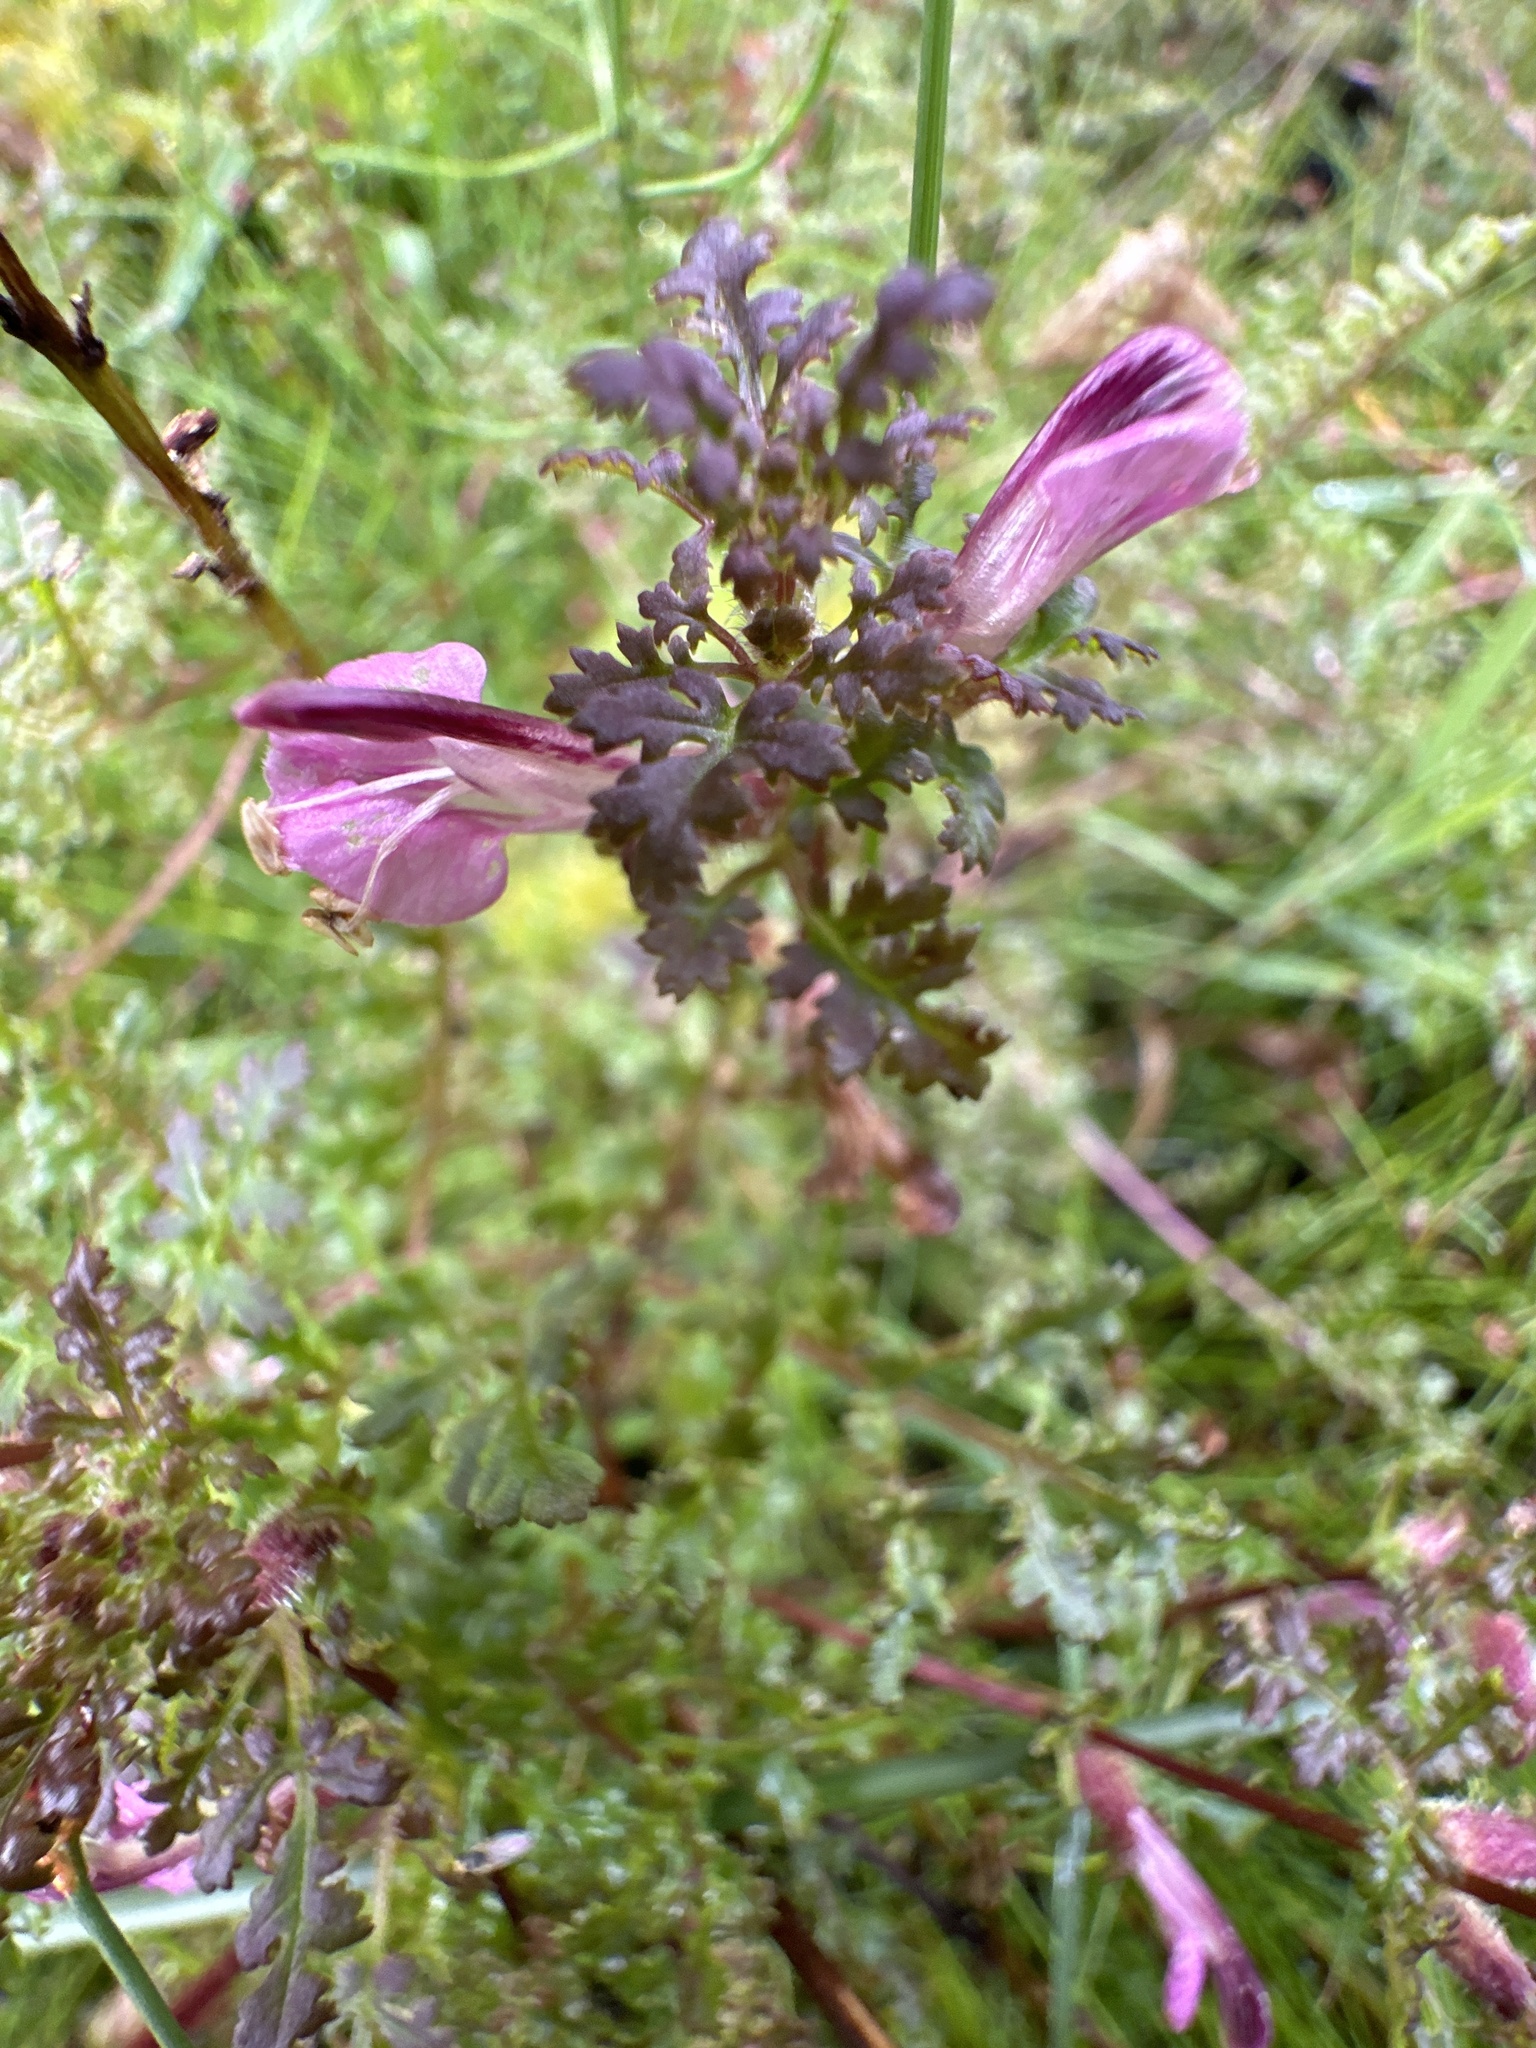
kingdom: Plantae
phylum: Tracheophyta
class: Magnoliopsida
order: Lamiales
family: Orobanchaceae
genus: Pedicularis
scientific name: Pedicularis palustris
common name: Marsh lousewort
